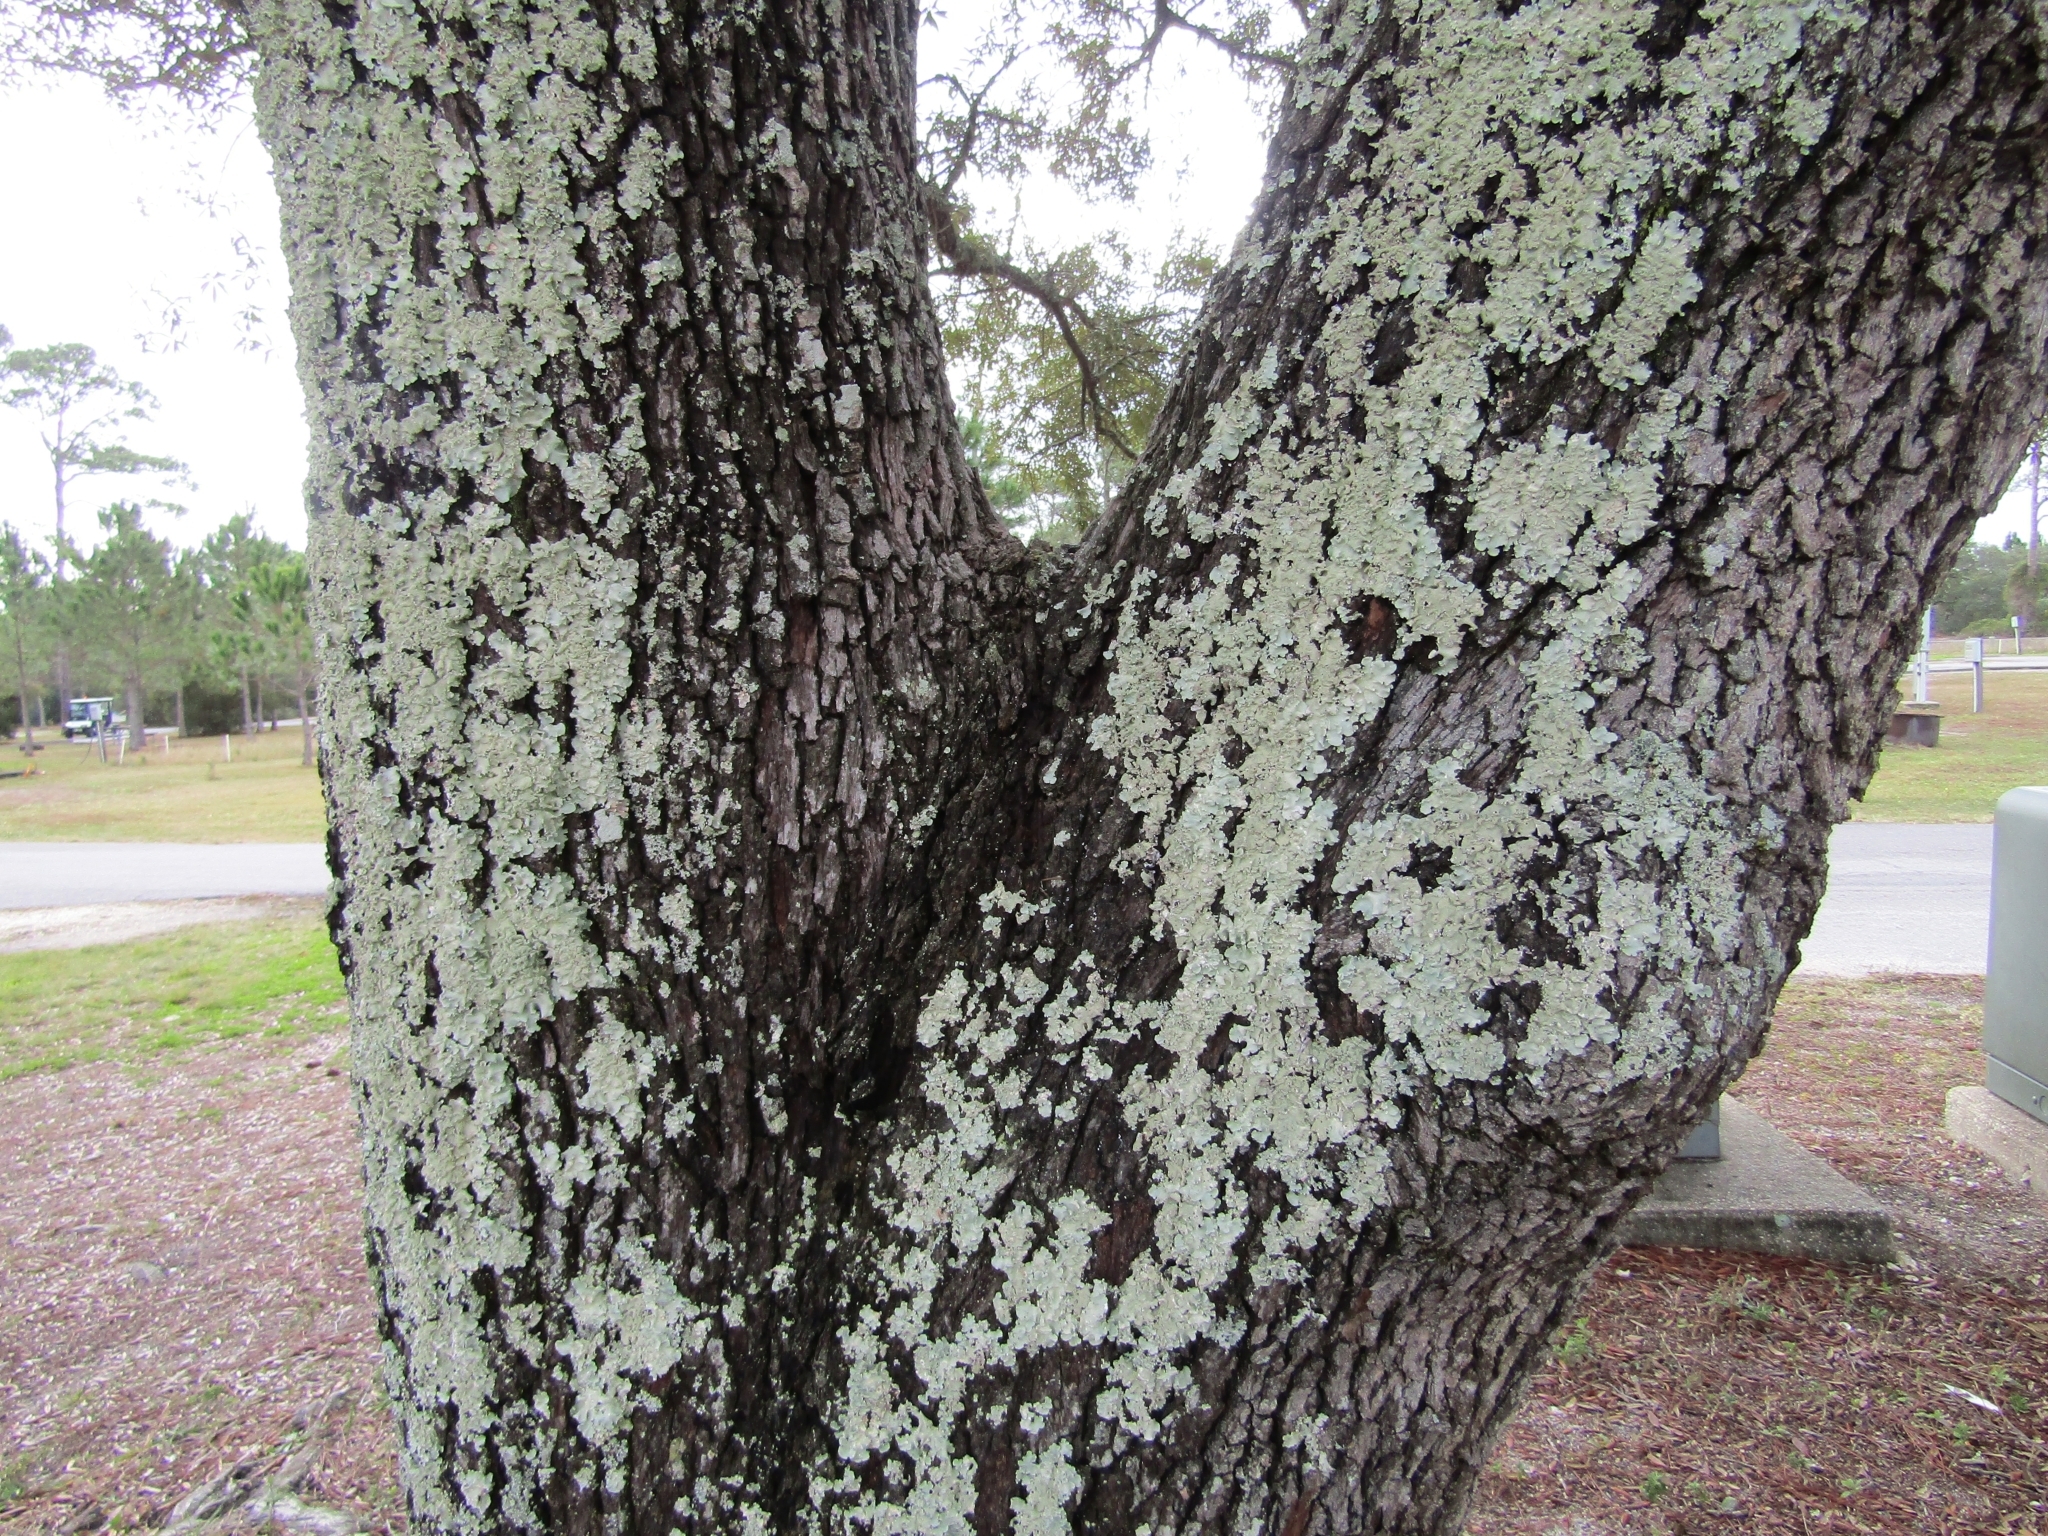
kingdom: Fungi
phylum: Ascomycota
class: Lecanoromycetes
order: Lecanorales
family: Parmeliaceae
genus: Parmotrema
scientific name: Parmotrema tinctorum
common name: Old gray ruffles
